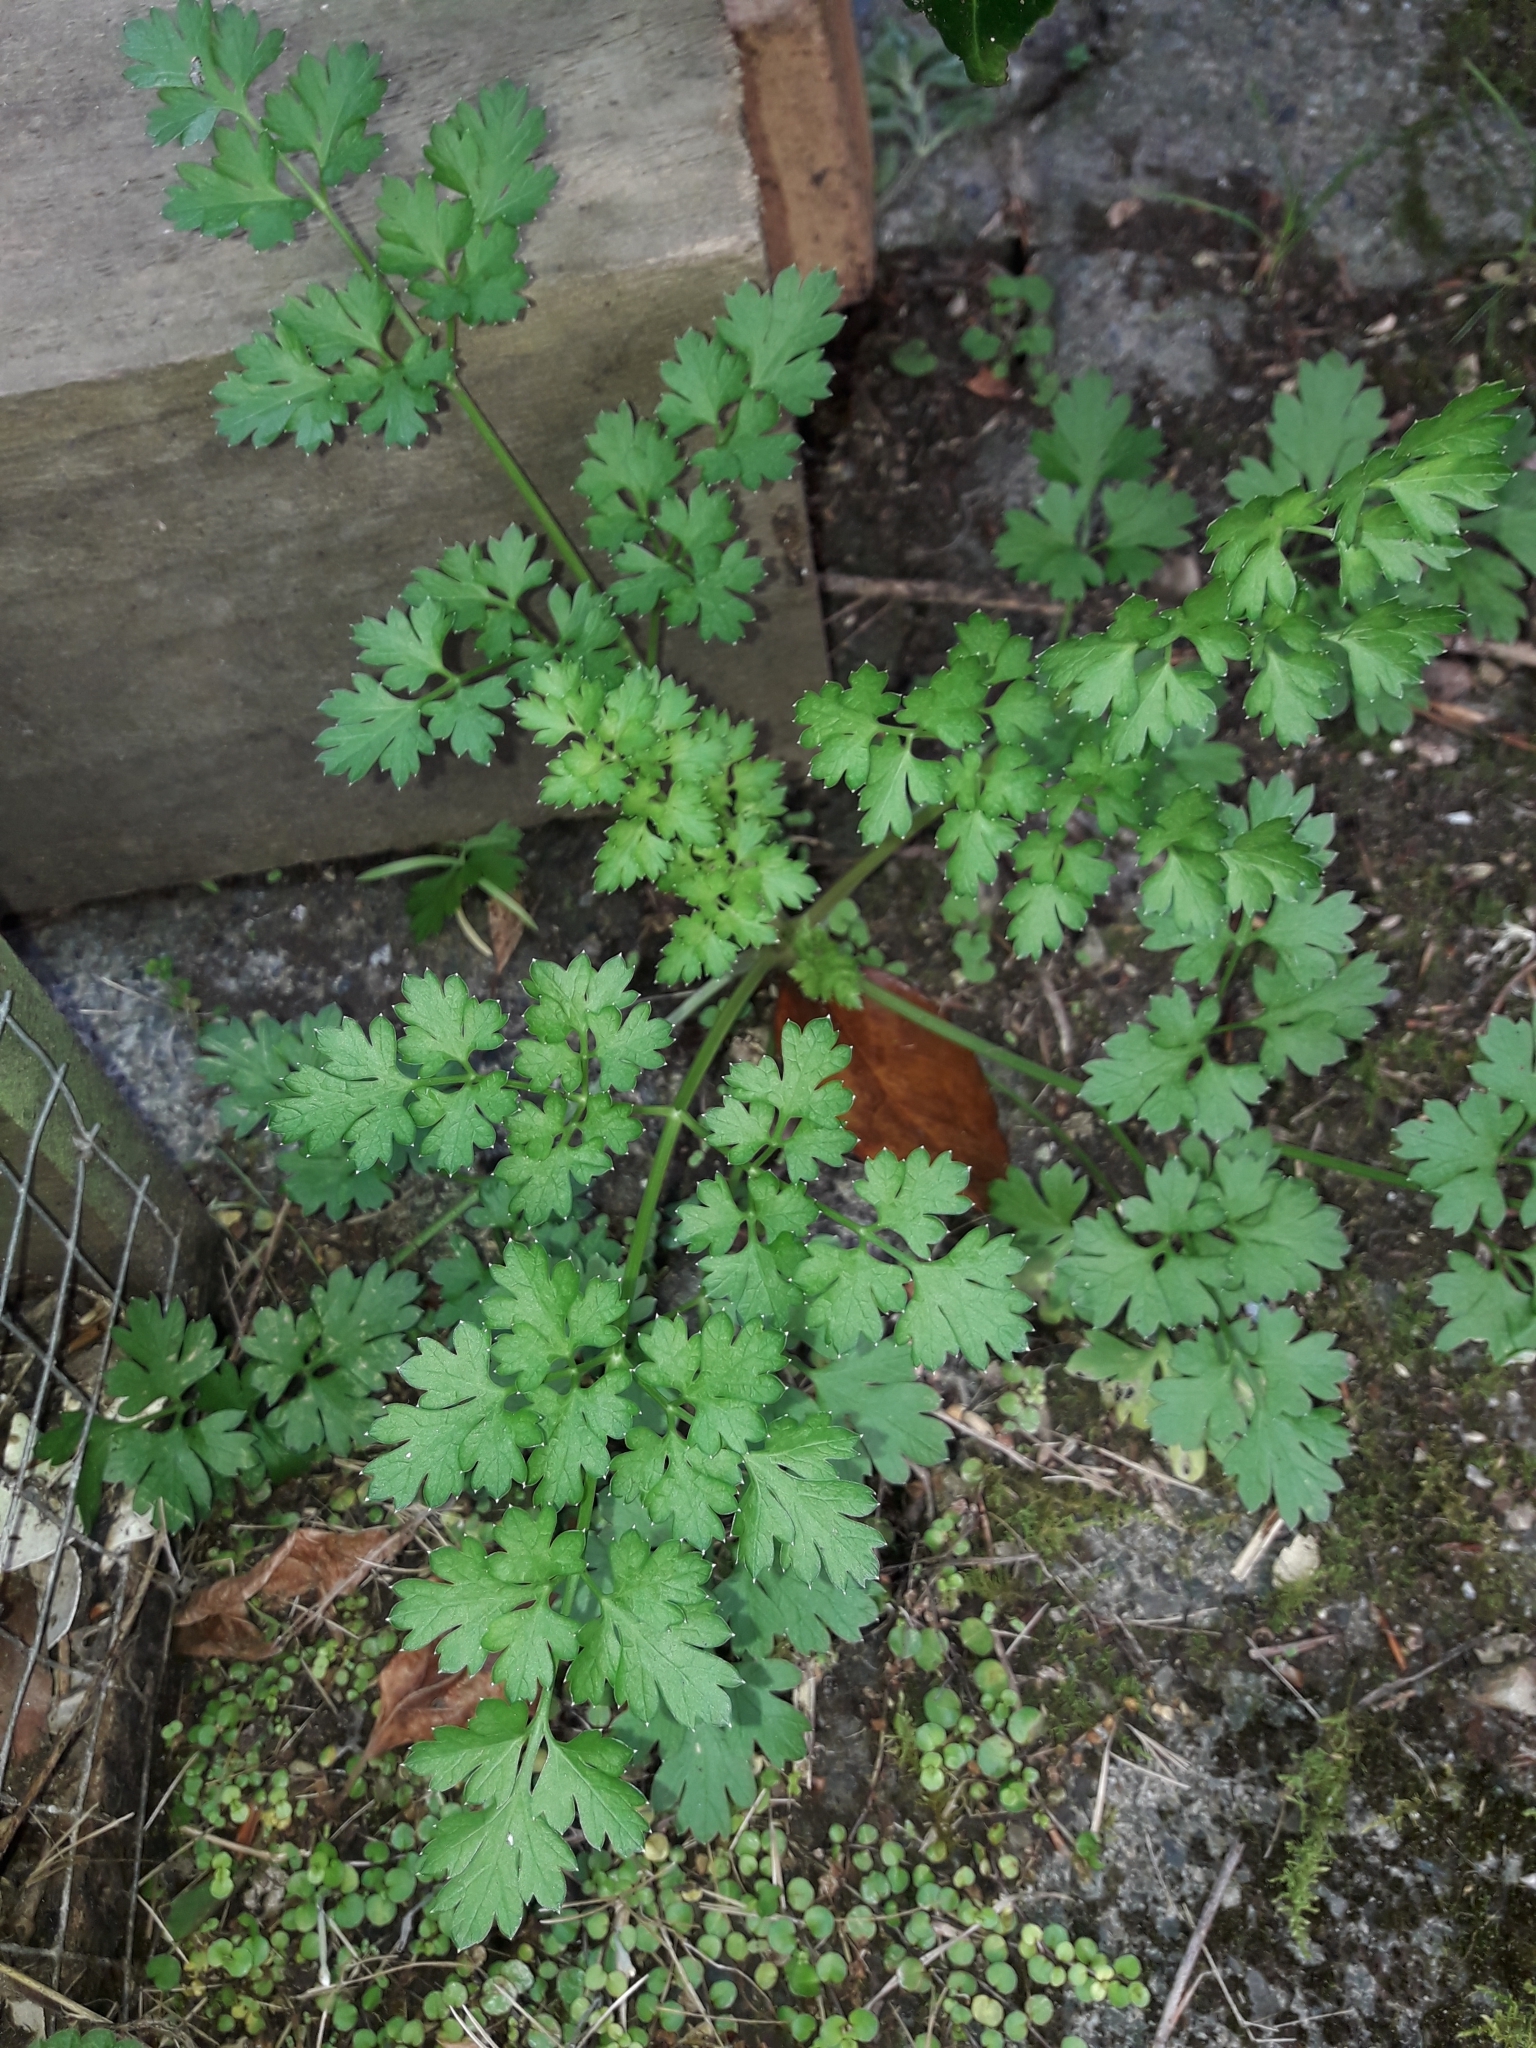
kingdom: Plantae
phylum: Tracheophyta
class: Magnoliopsida
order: Apiales
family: Apiaceae
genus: Petroselinum
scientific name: Petroselinum crispum
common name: Parsley
